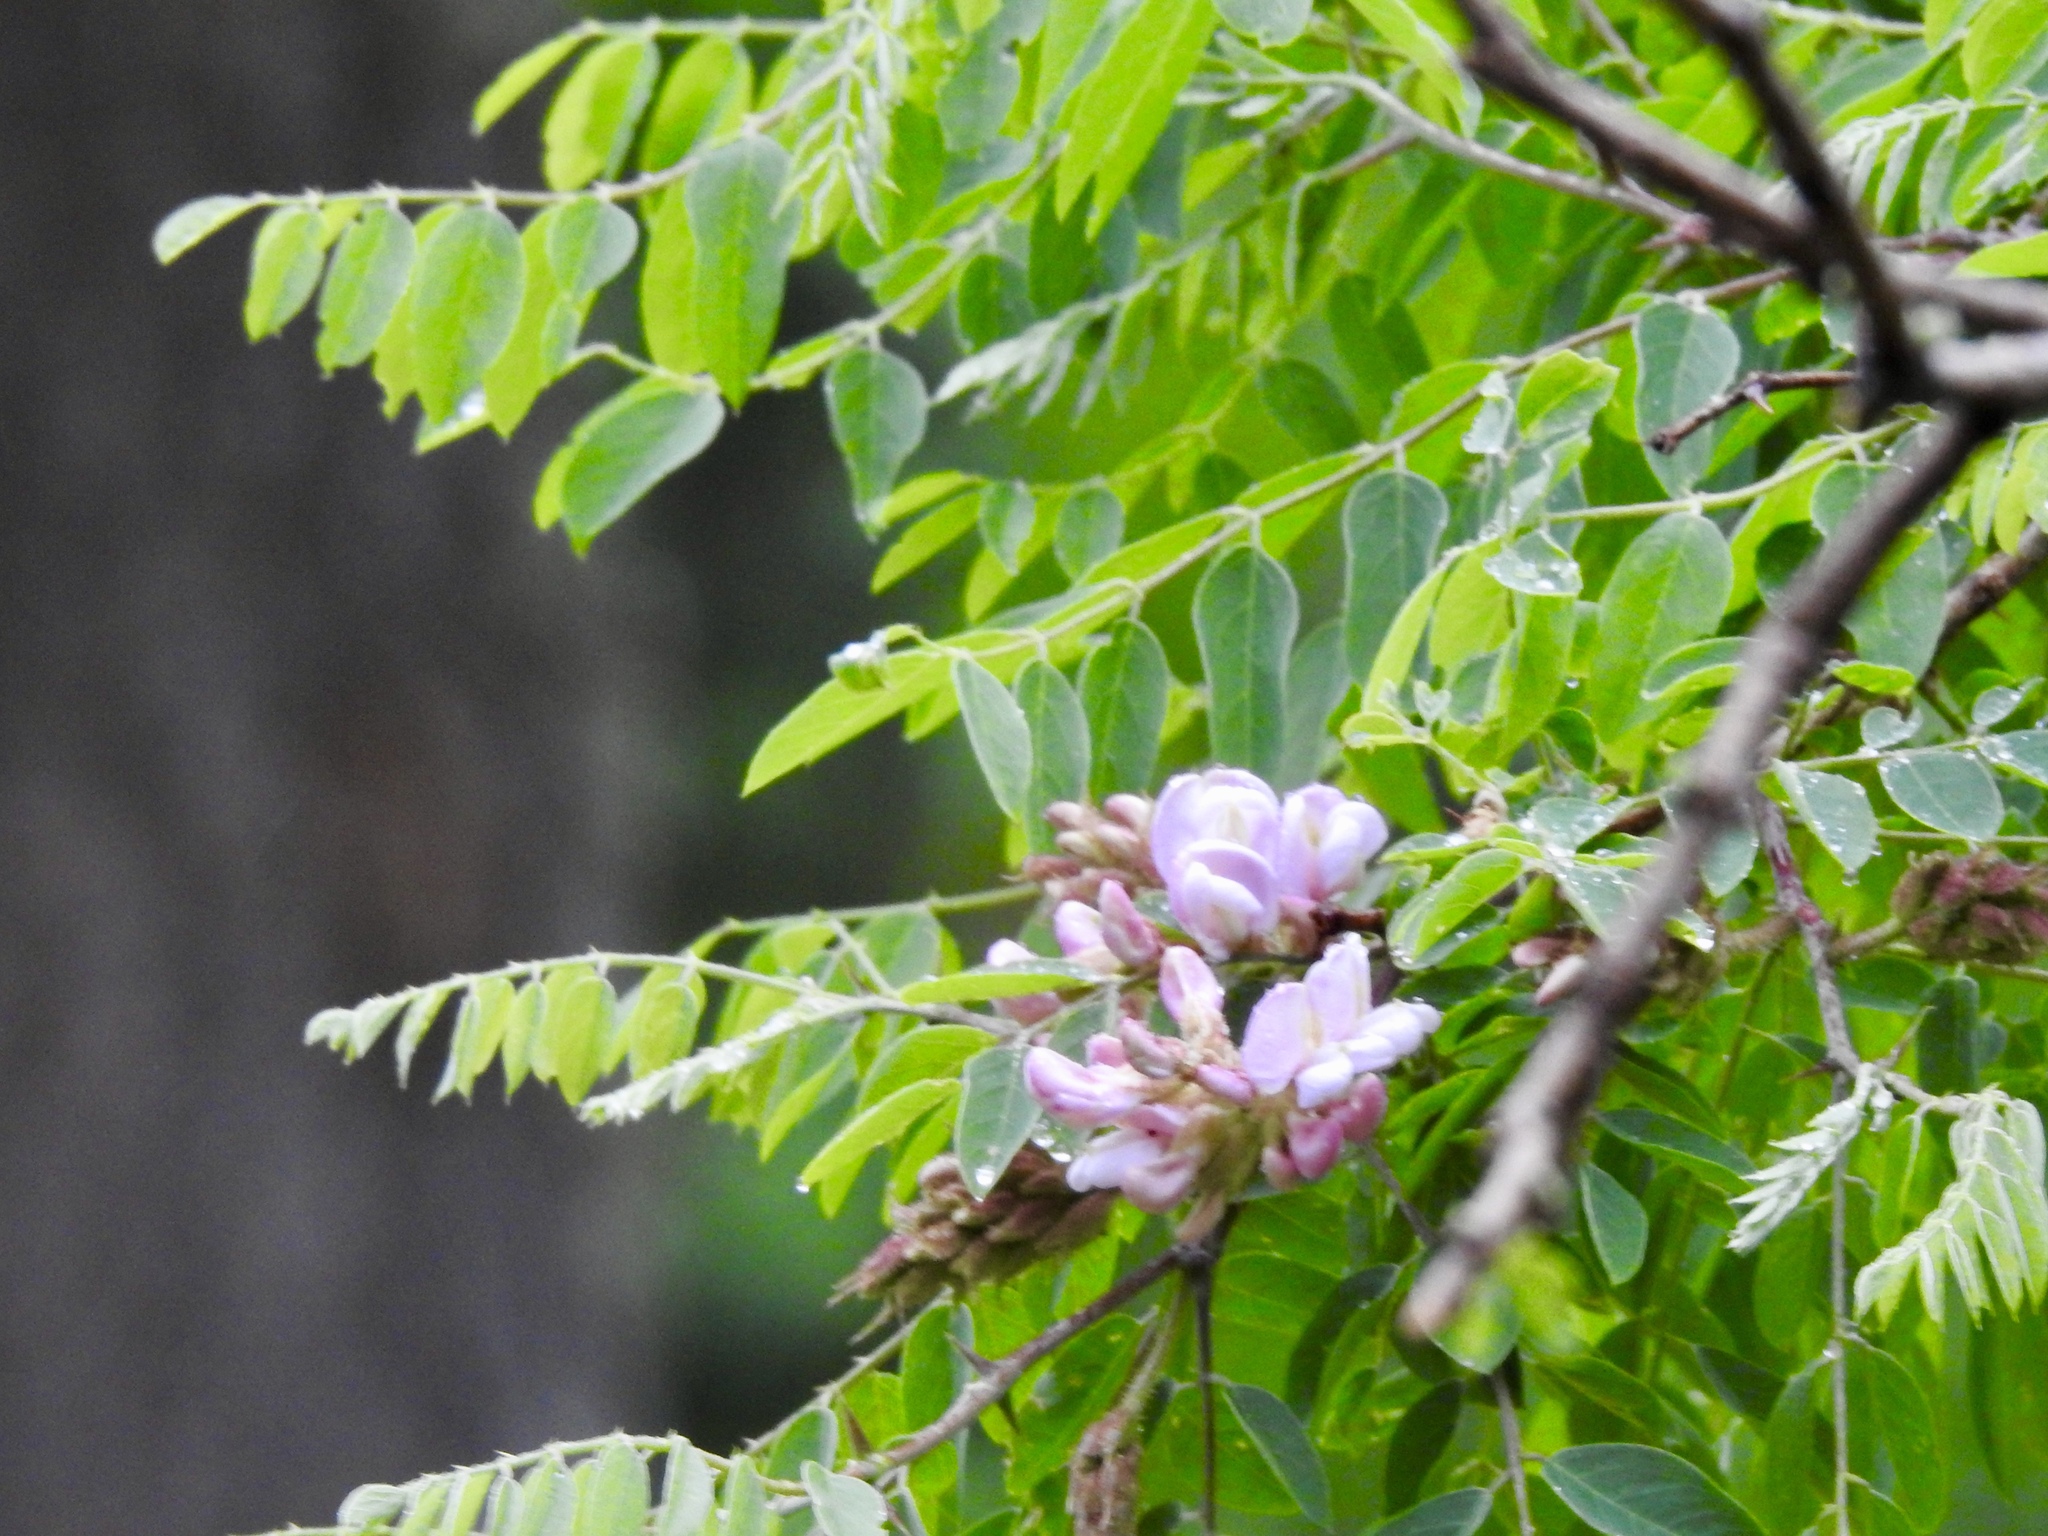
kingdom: Plantae
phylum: Tracheophyta
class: Magnoliopsida
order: Fabales
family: Fabaceae
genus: Robinia
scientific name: Robinia neomexicana
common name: New mexico locust
